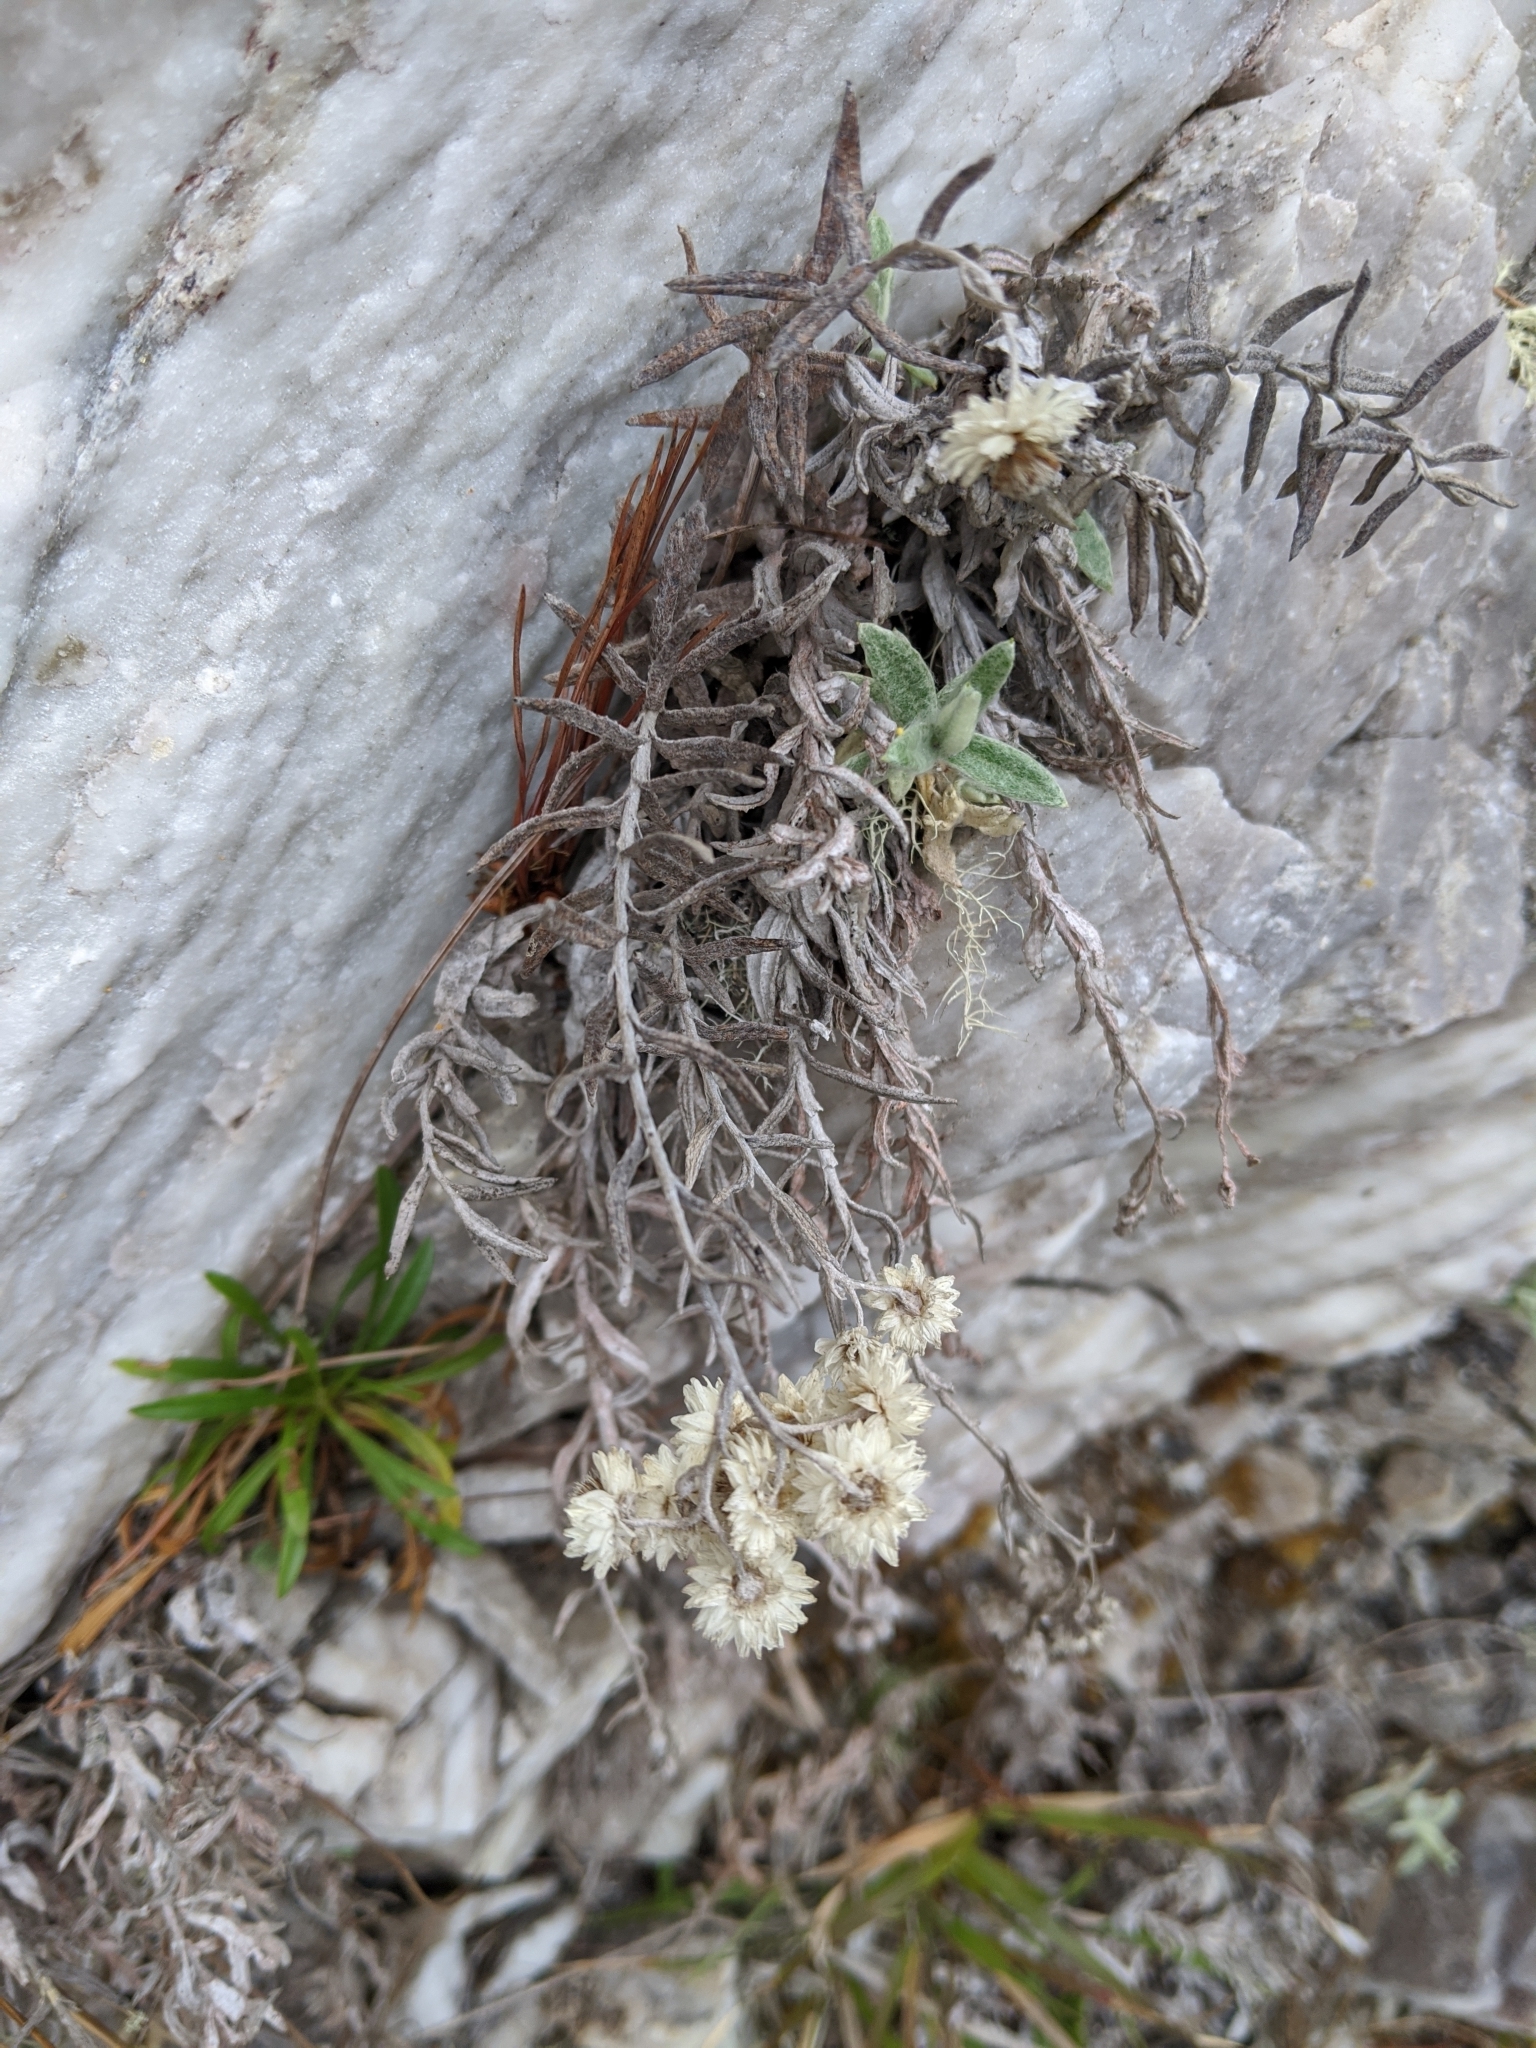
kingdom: Plantae
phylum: Tracheophyta
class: Magnoliopsida
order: Asterales
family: Asteraceae
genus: Anaphalis
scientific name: Anaphalis morrisonicola
